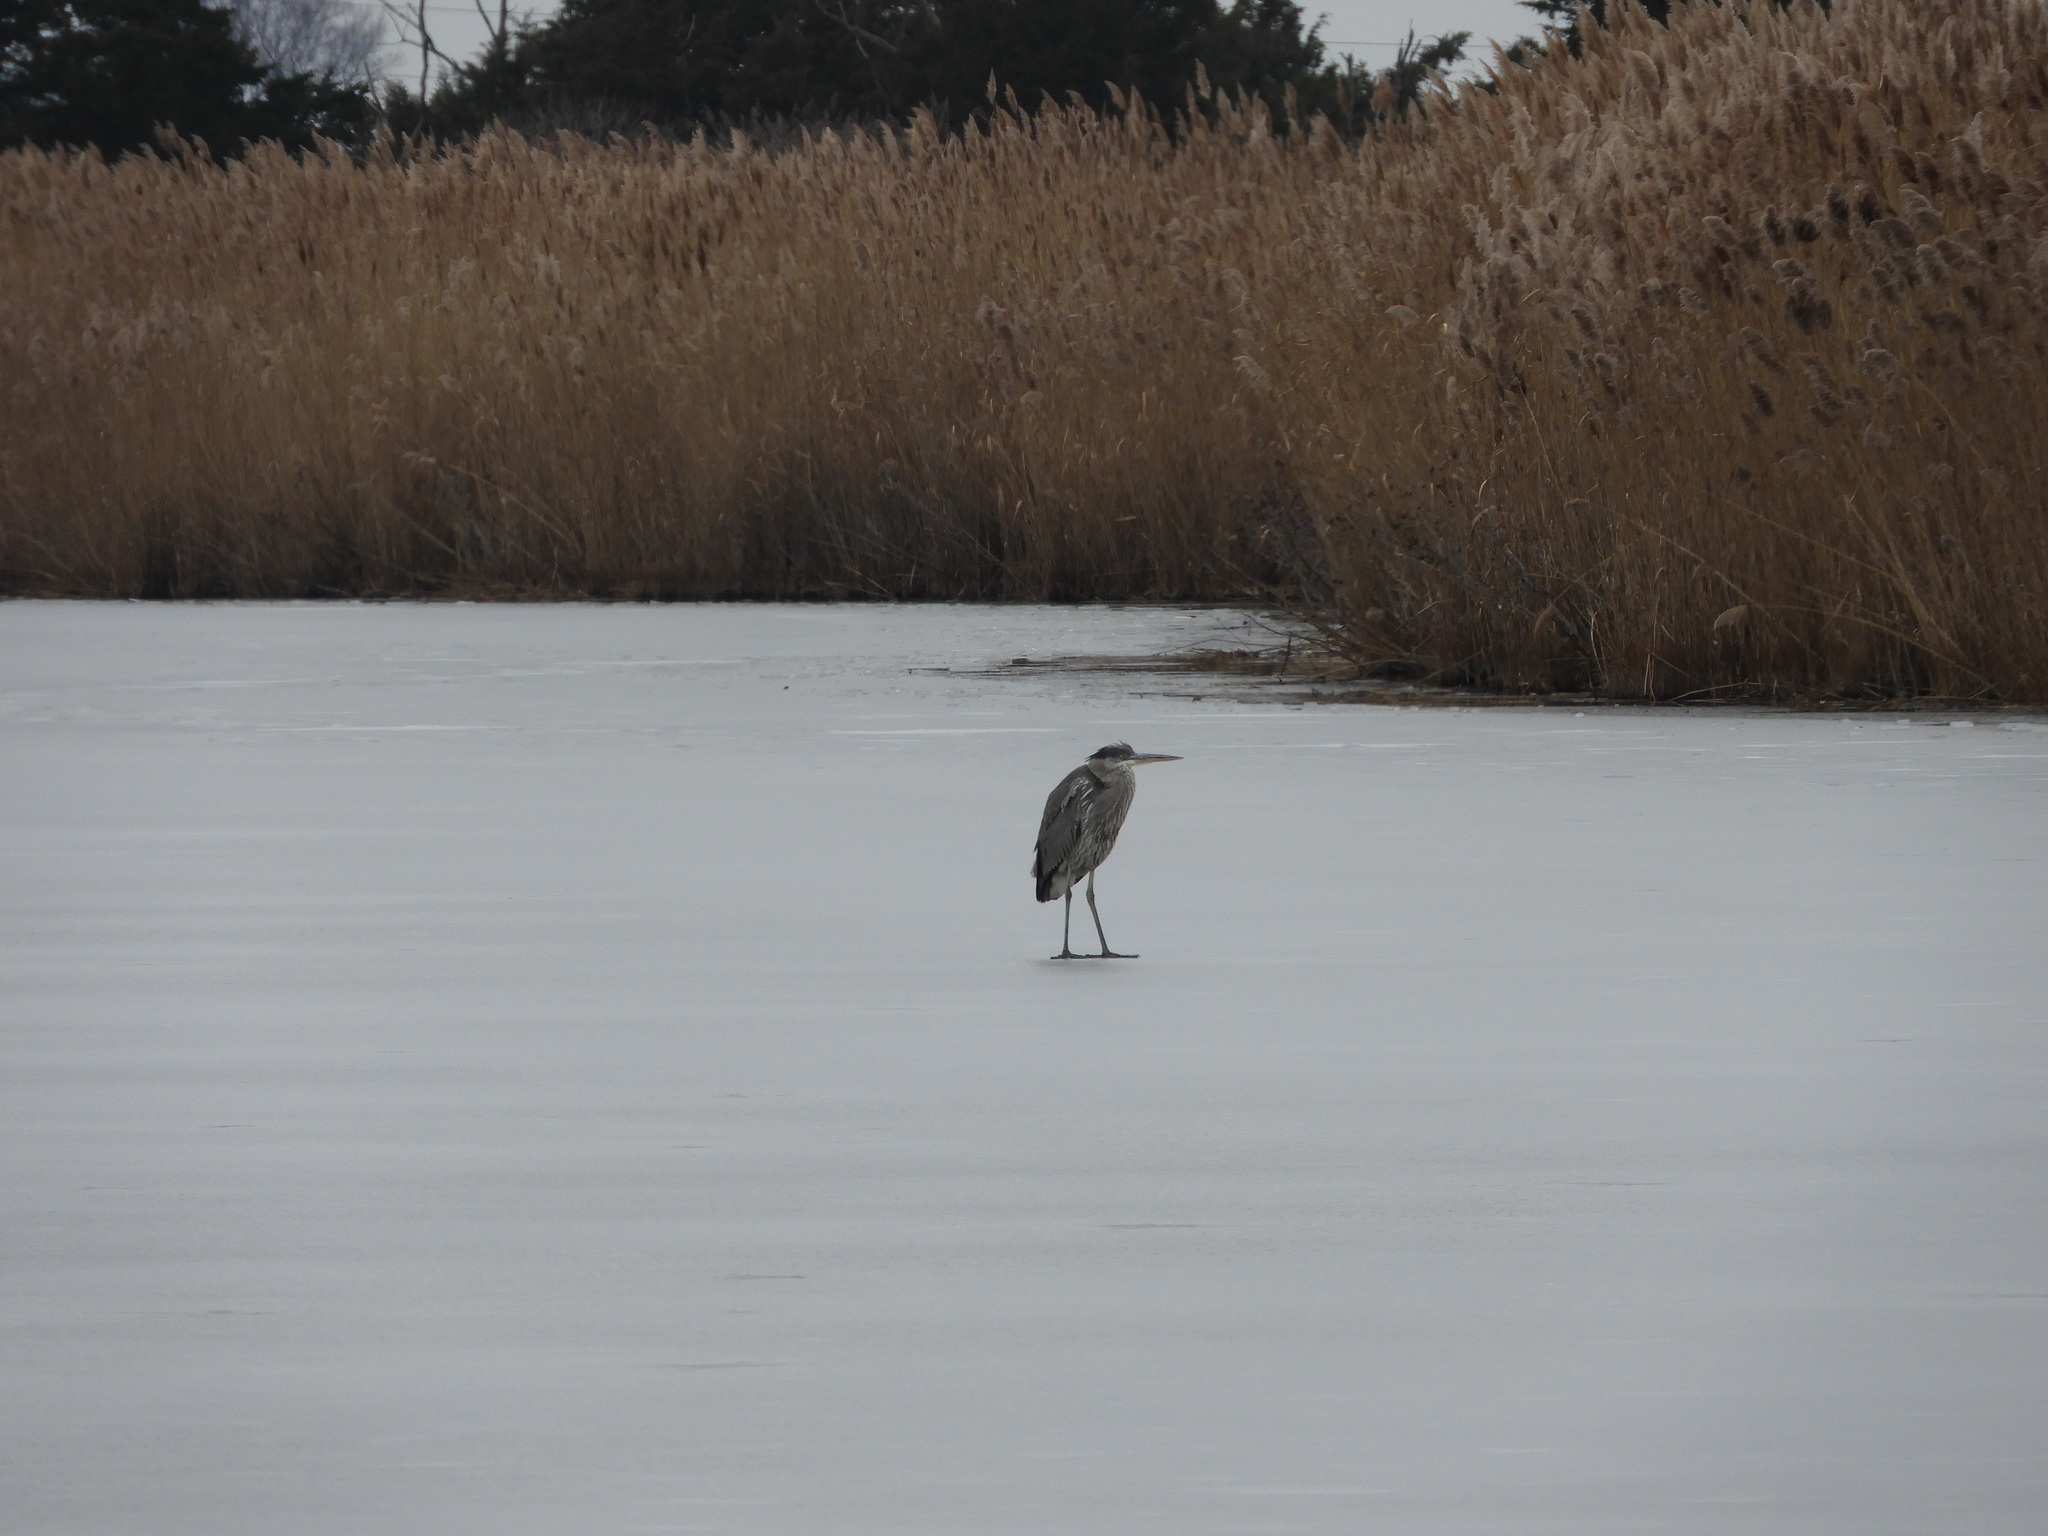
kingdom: Animalia
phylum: Chordata
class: Aves
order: Pelecaniformes
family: Ardeidae
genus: Ardea
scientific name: Ardea herodias
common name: Great blue heron
